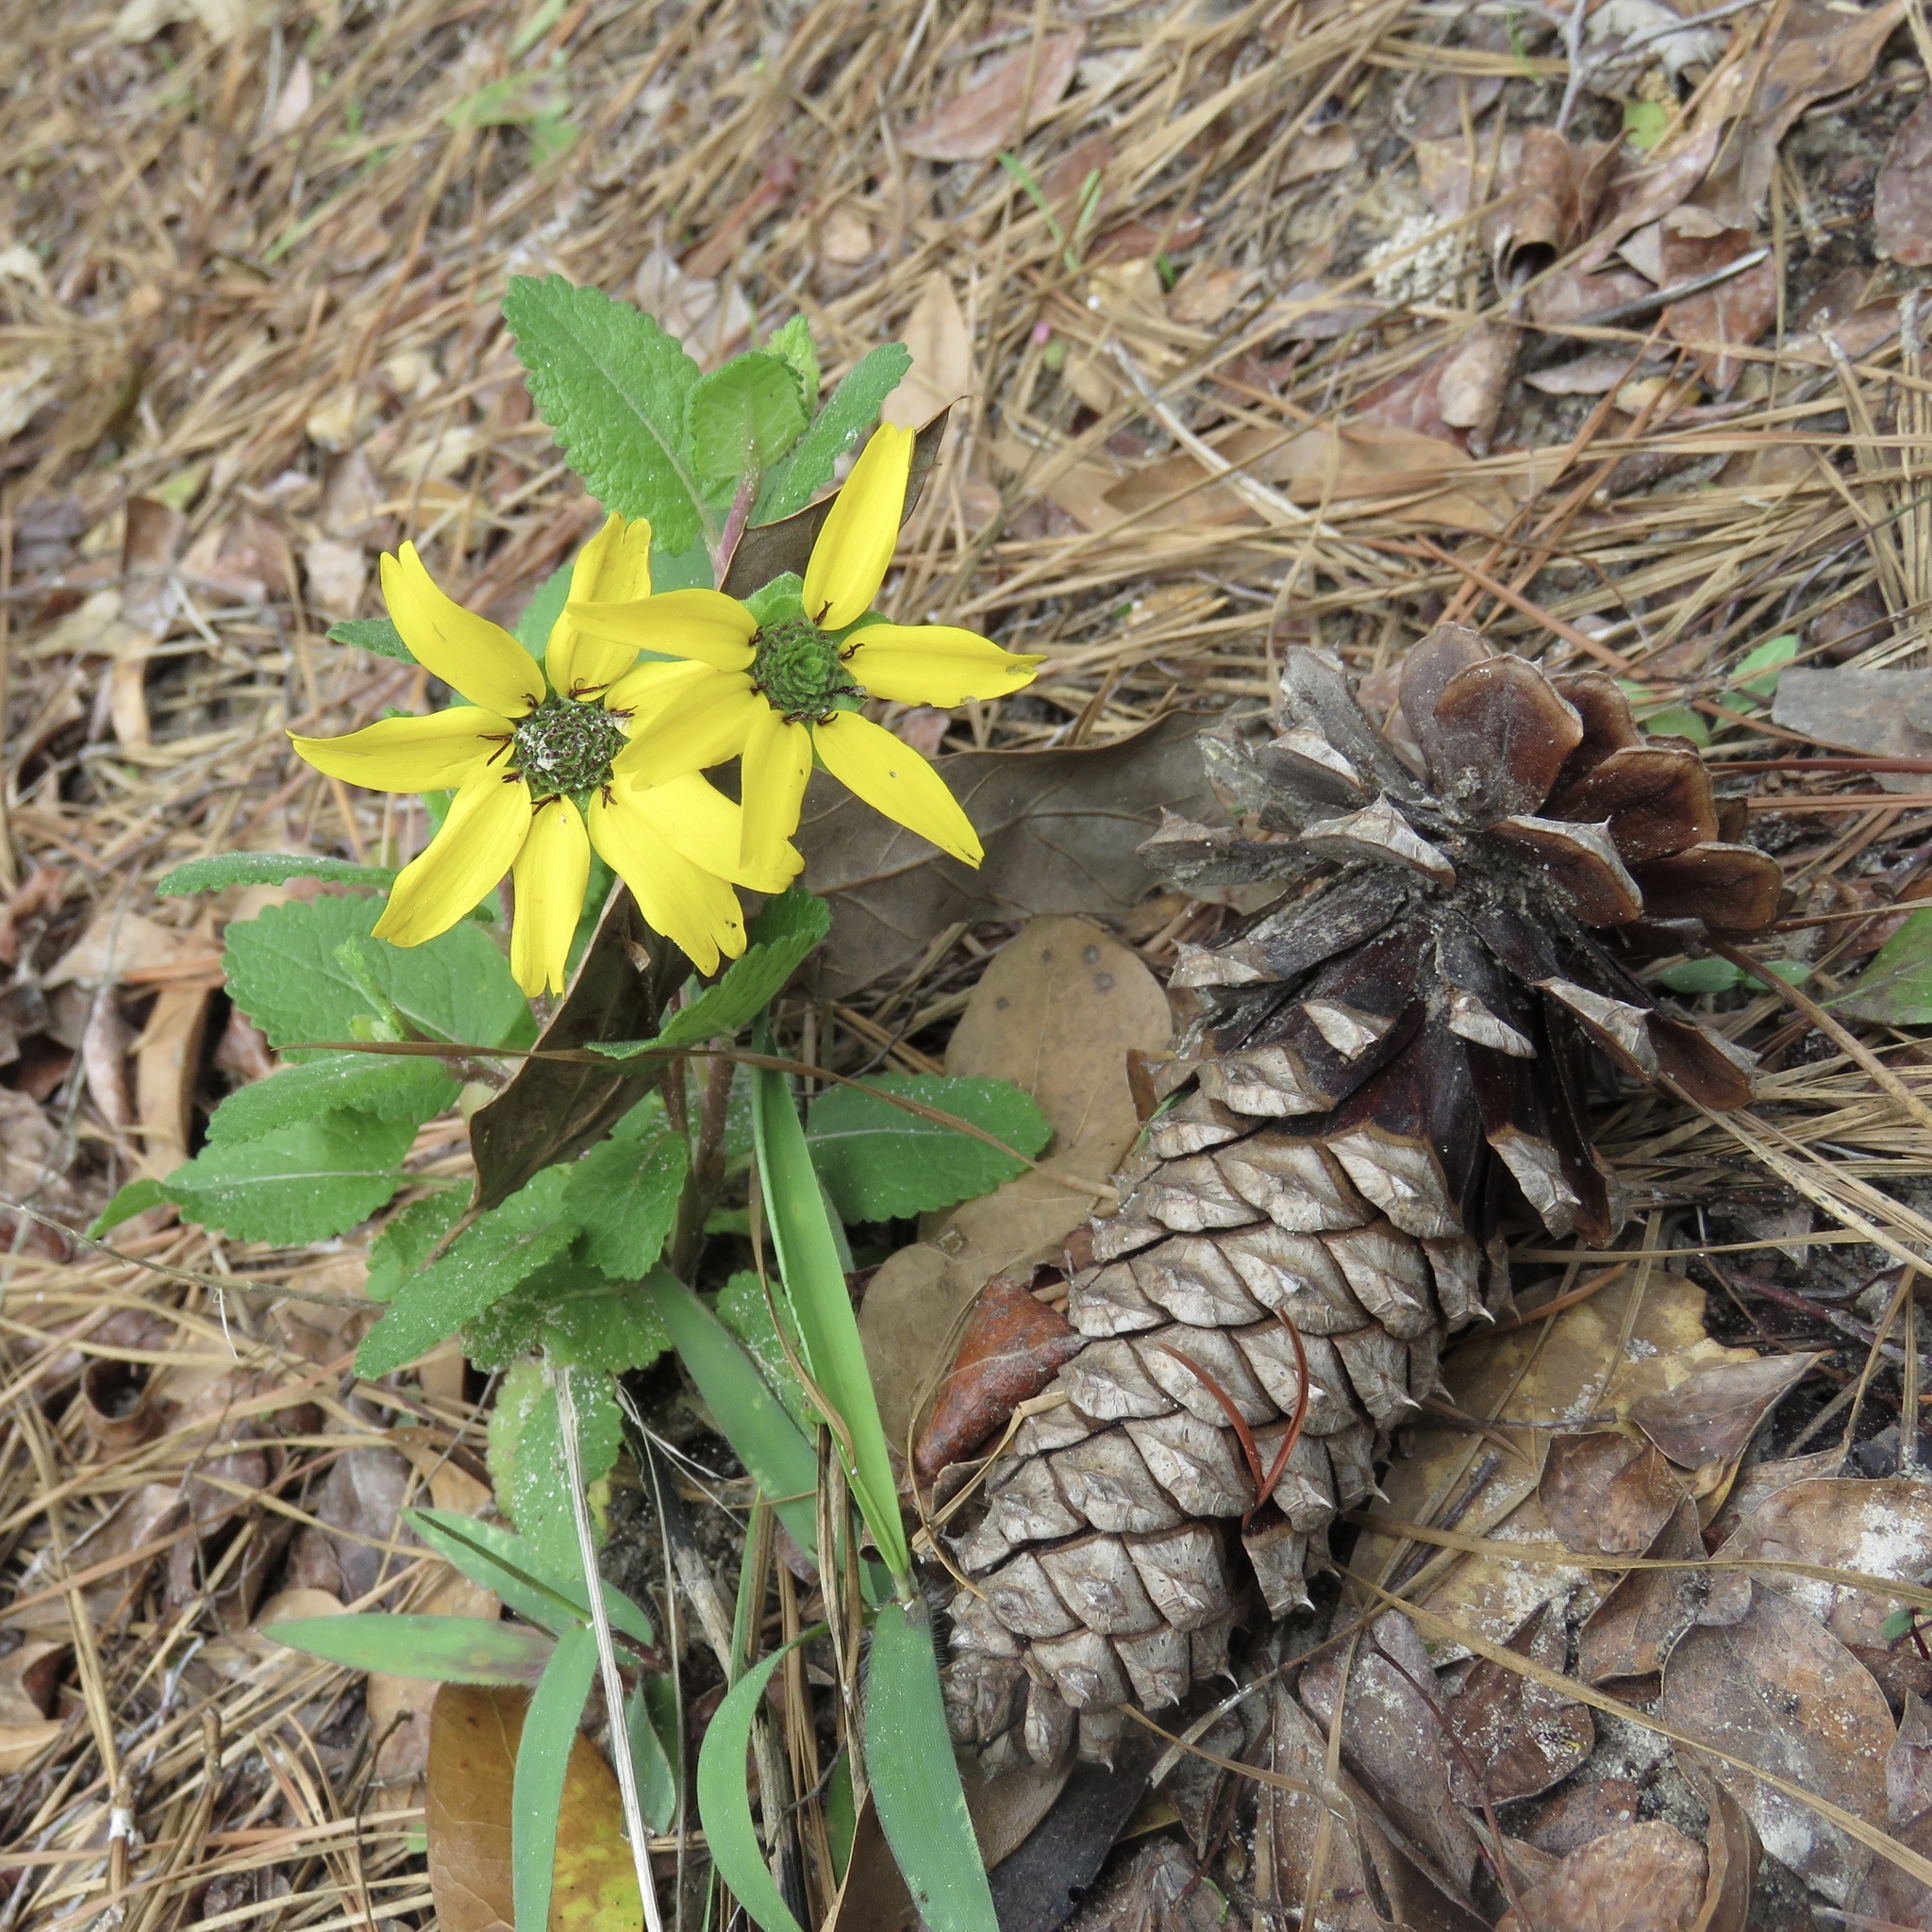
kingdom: Plantae
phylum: Tracheophyta
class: Magnoliopsida
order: Asterales
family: Asteraceae
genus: Berlandiera
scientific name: Berlandiera pumila
